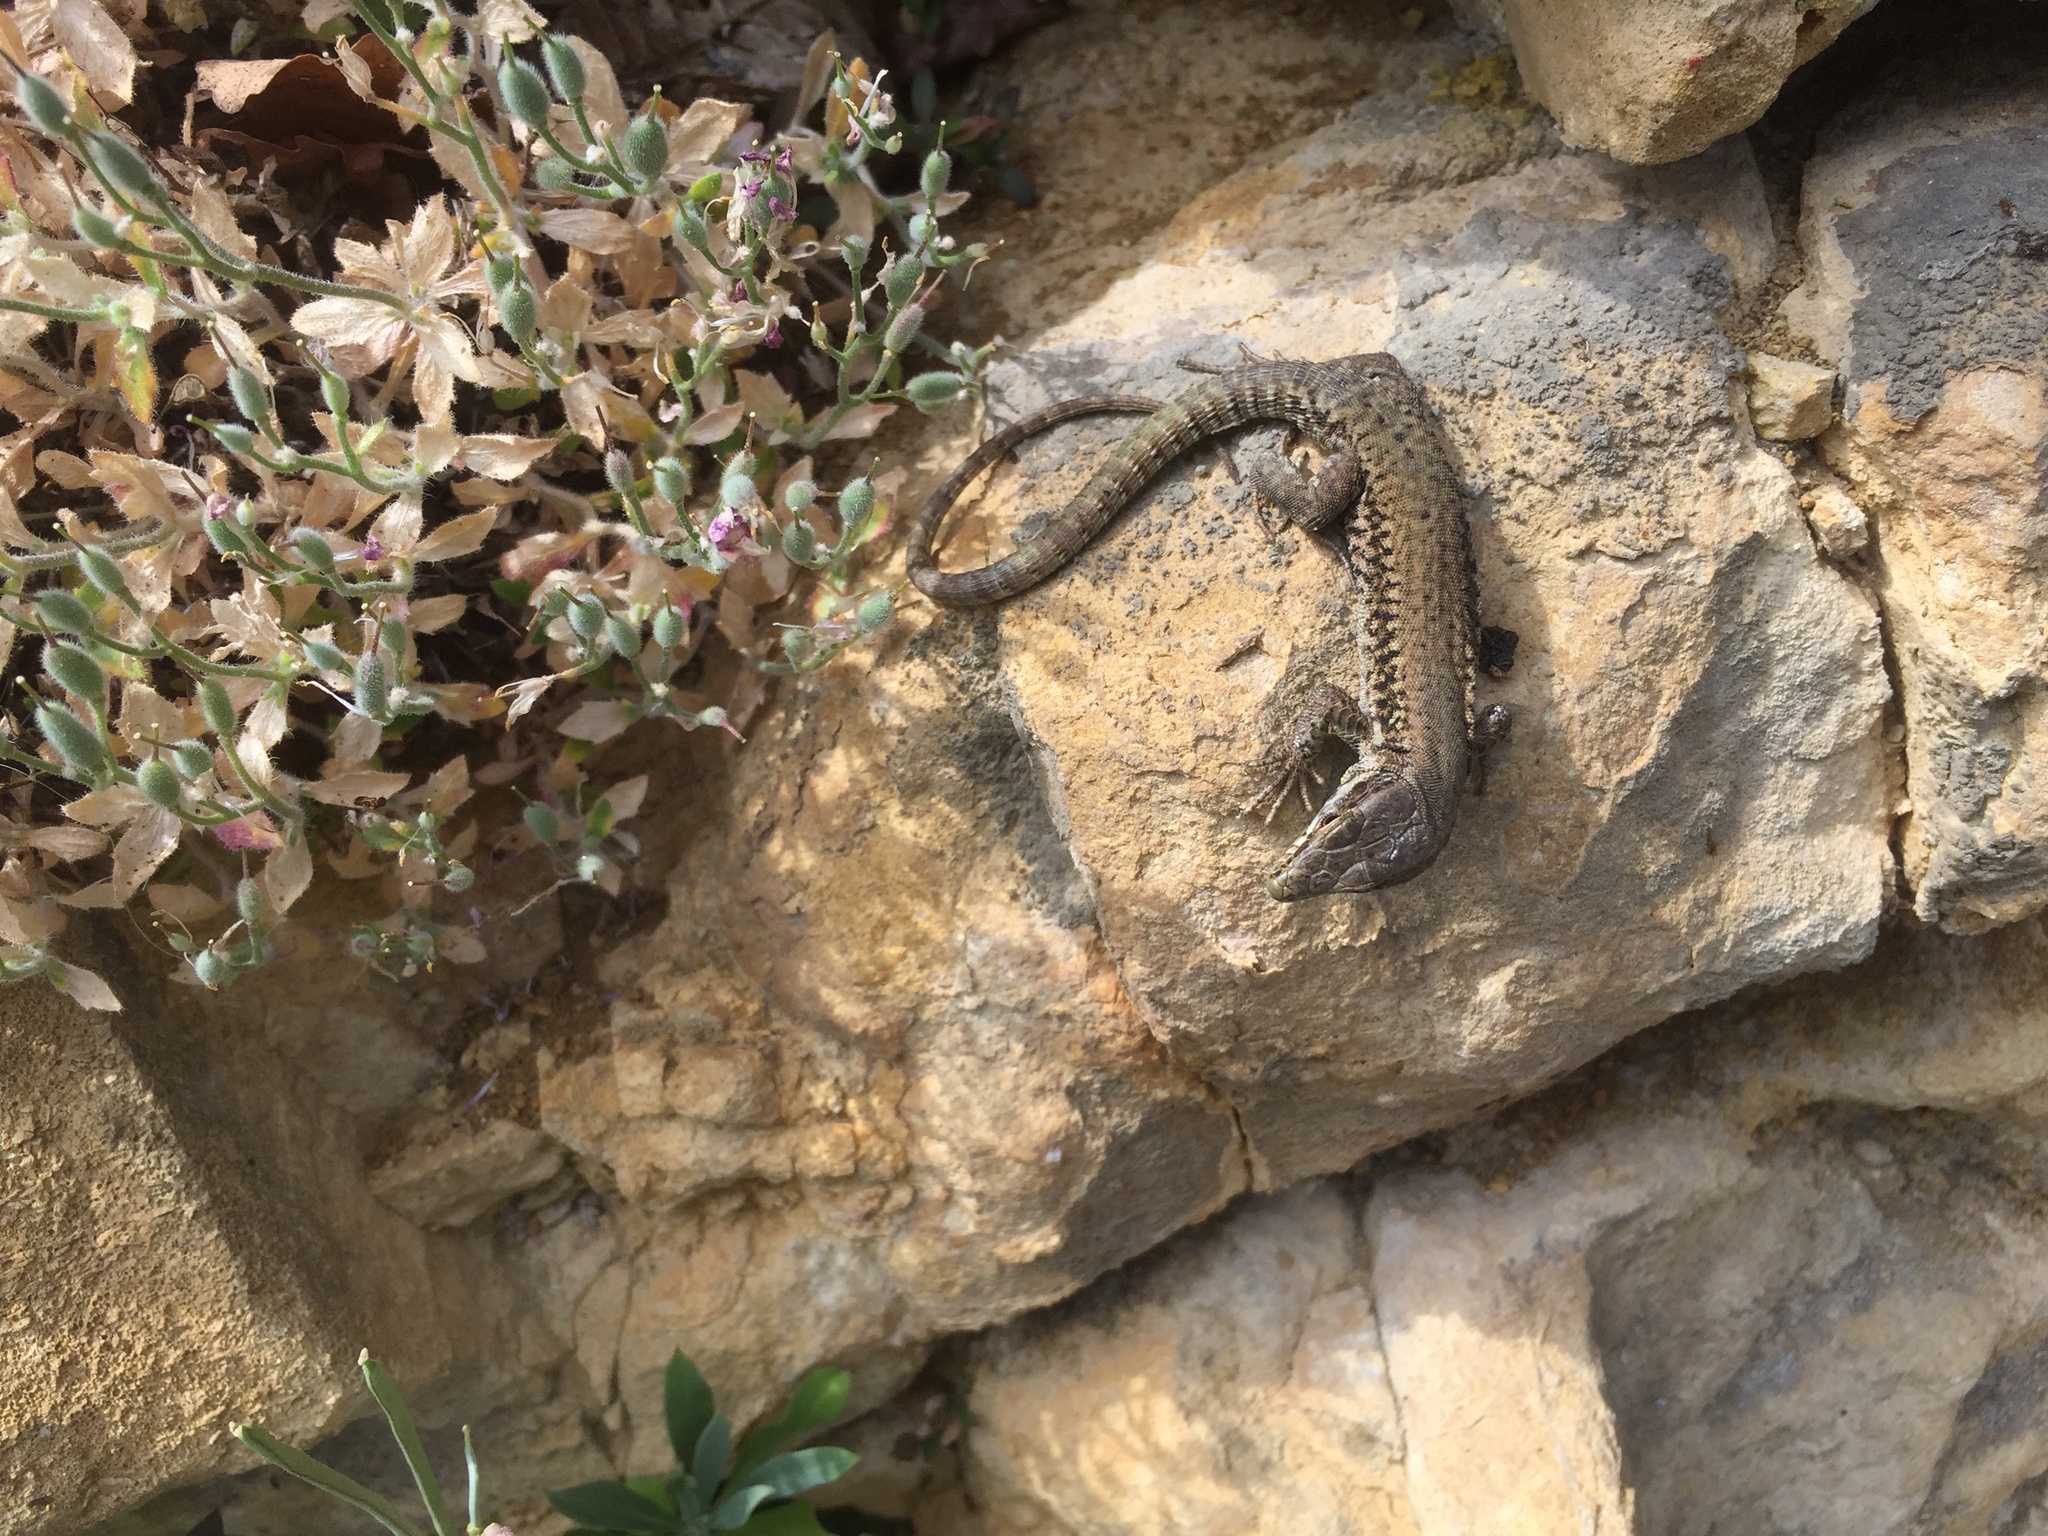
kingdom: Animalia
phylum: Chordata
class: Squamata
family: Lacertidae
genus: Podarcis
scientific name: Podarcis muralis
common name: Common wall lizard
